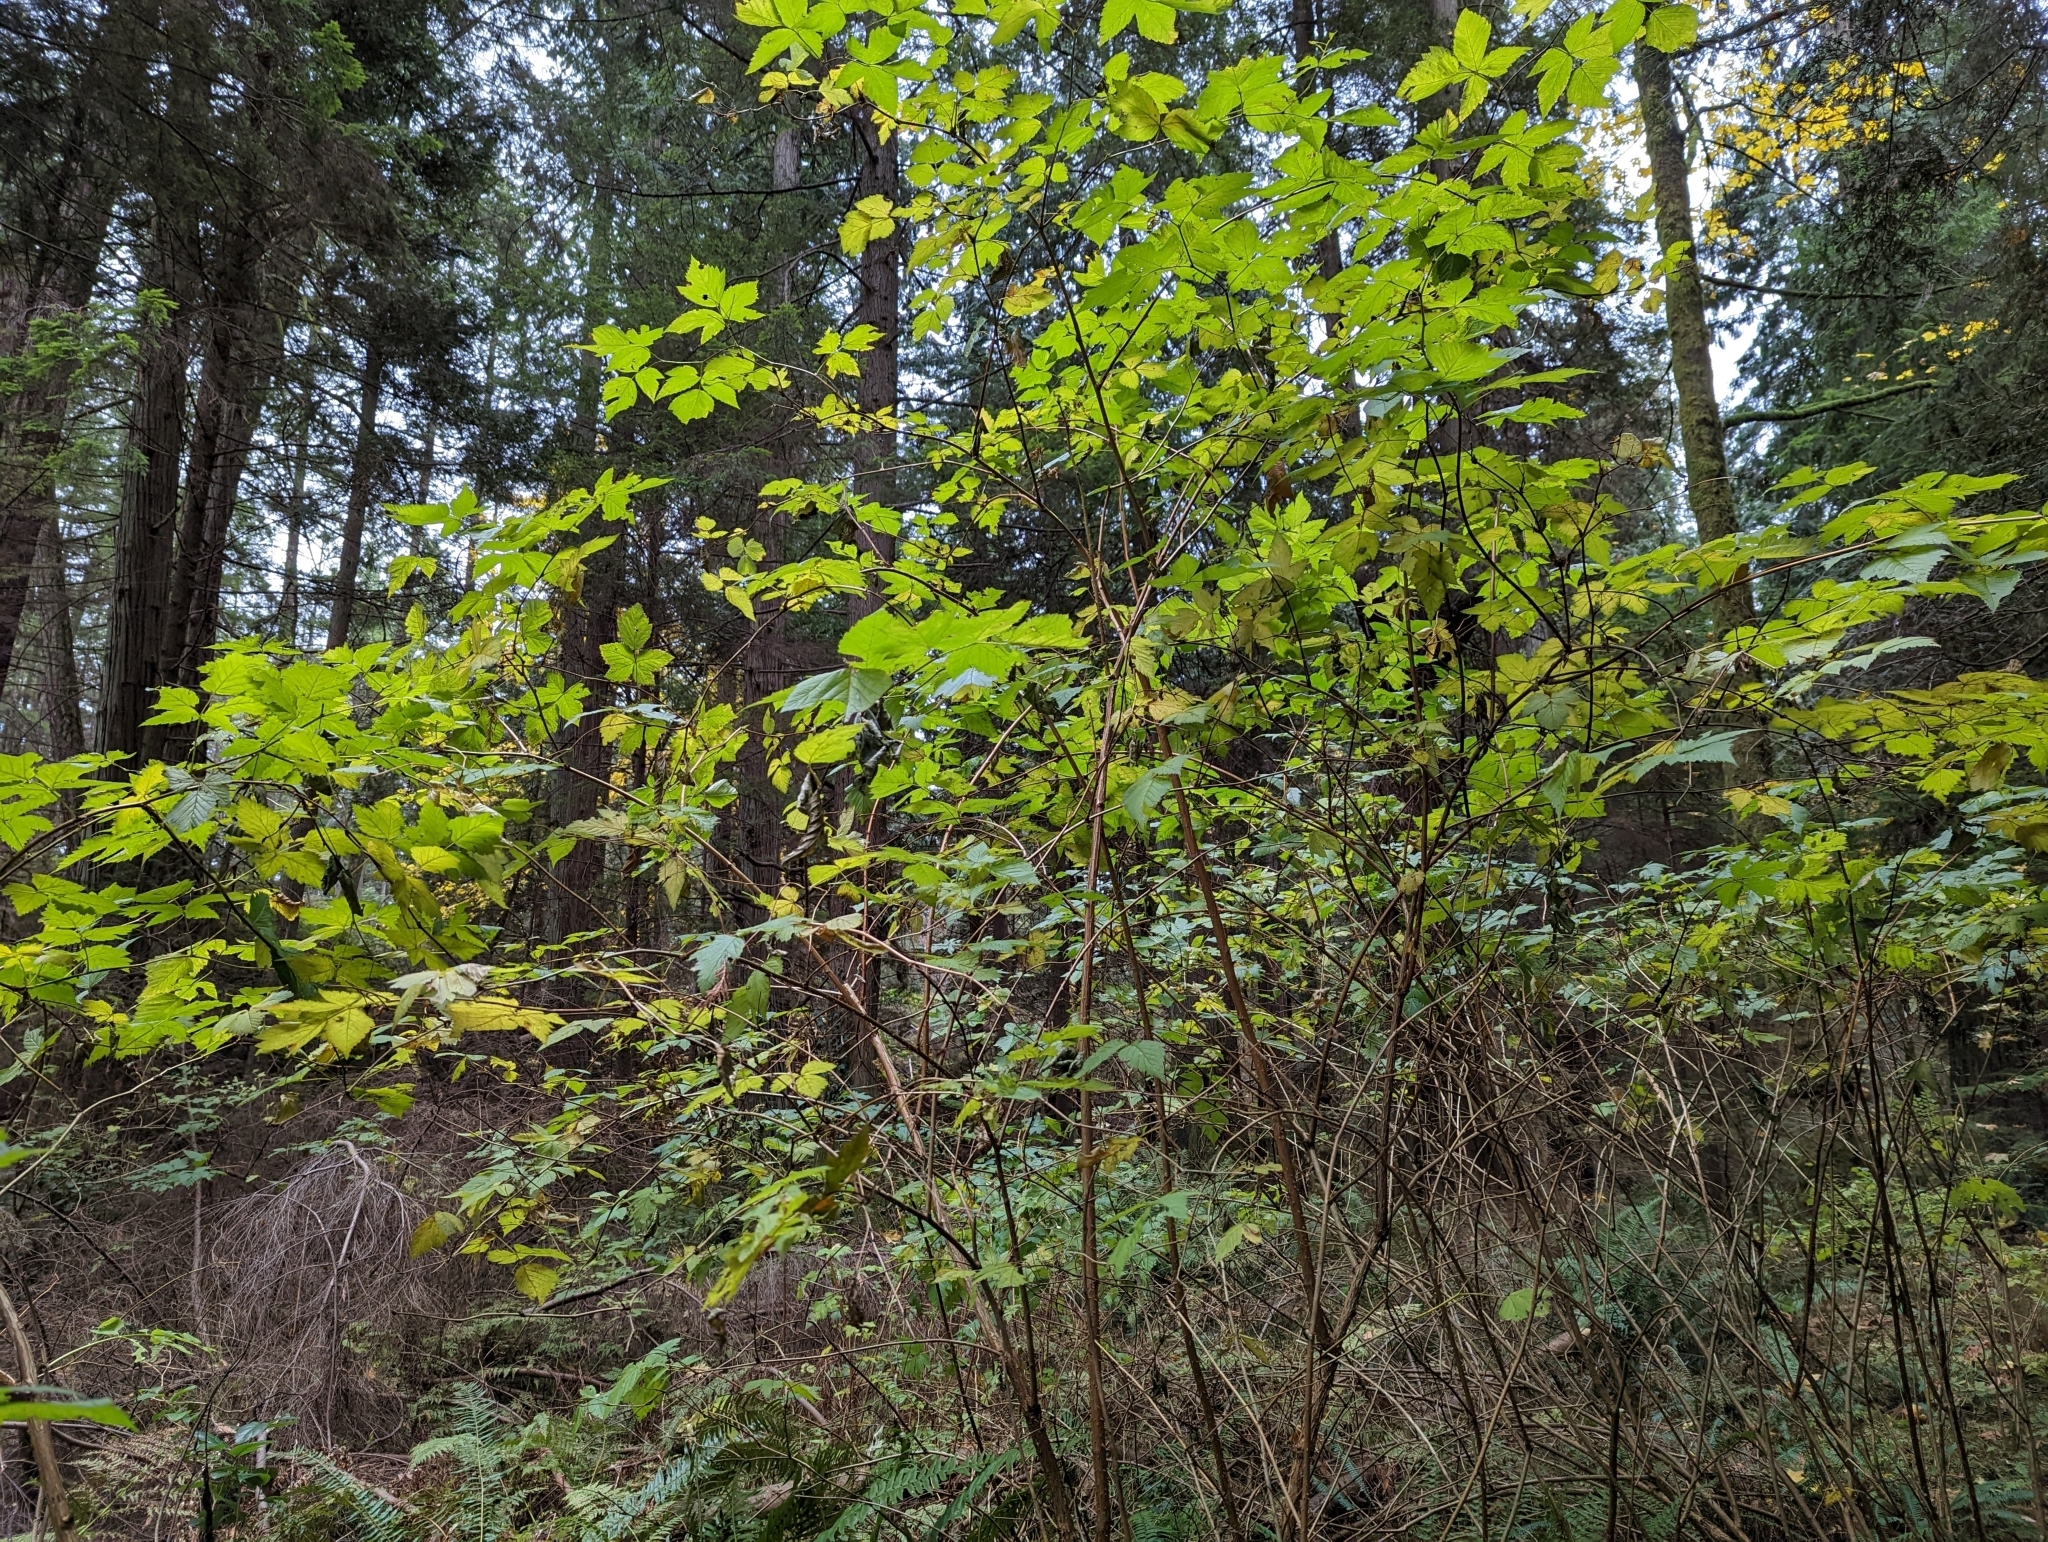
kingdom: Plantae
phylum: Tracheophyta
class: Magnoliopsida
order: Rosales
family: Rosaceae
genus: Rubus
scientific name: Rubus spectabilis
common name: Salmonberry
